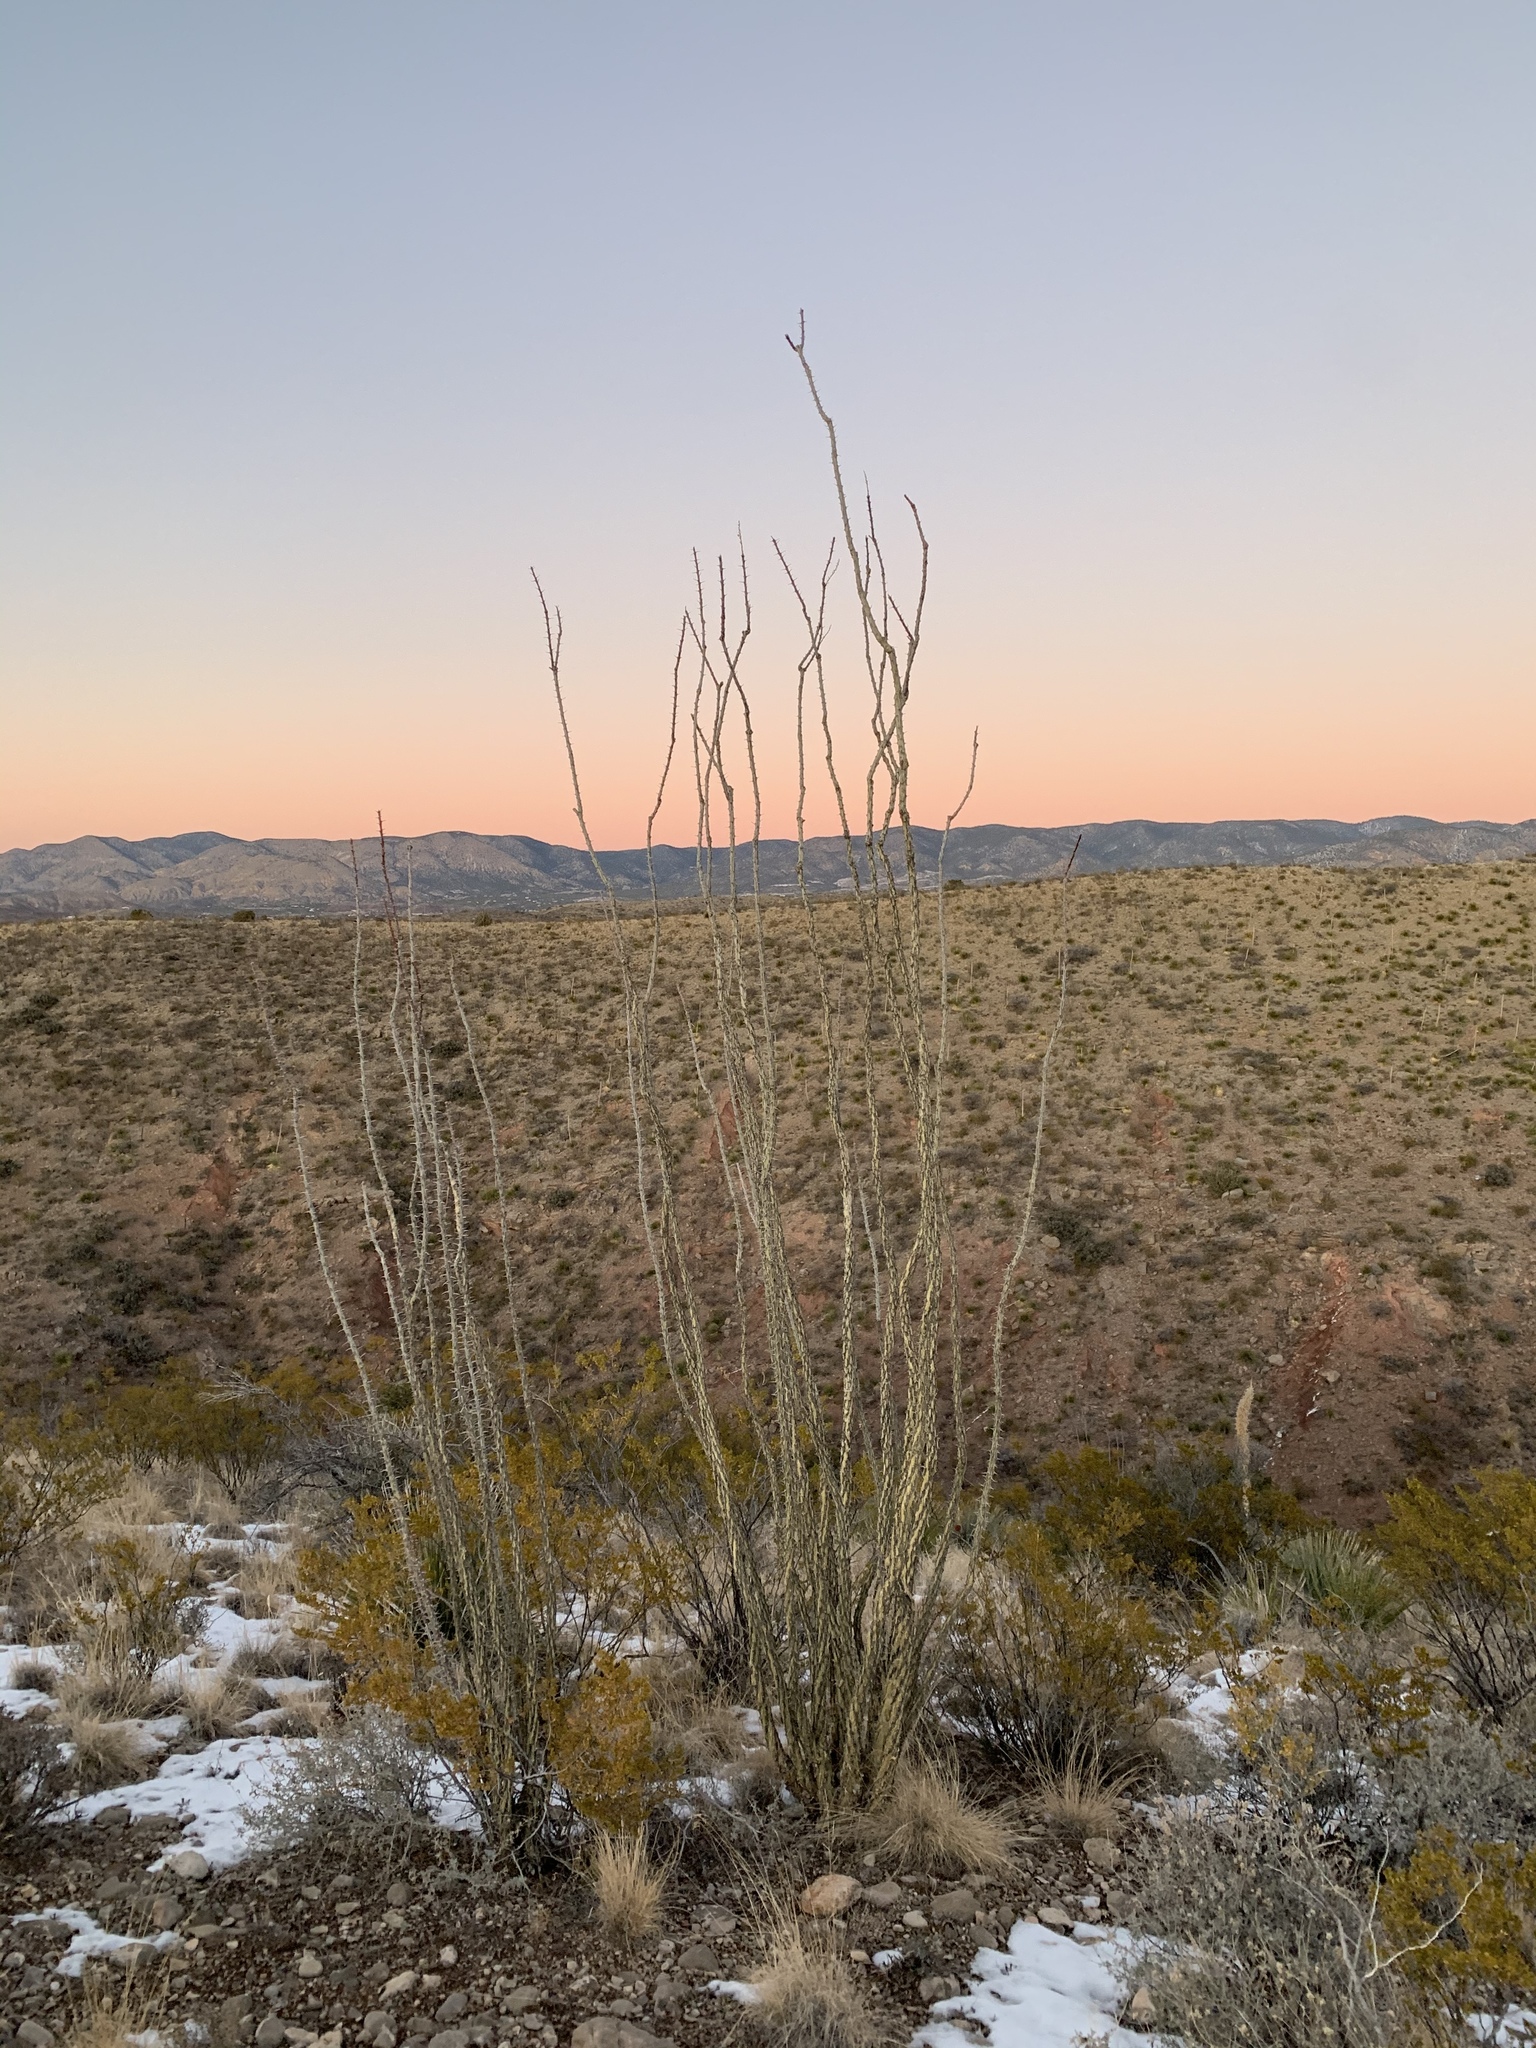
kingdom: Plantae
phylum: Tracheophyta
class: Magnoliopsida
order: Ericales
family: Fouquieriaceae
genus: Fouquieria
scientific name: Fouquieria splendens
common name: Vine-cactus
